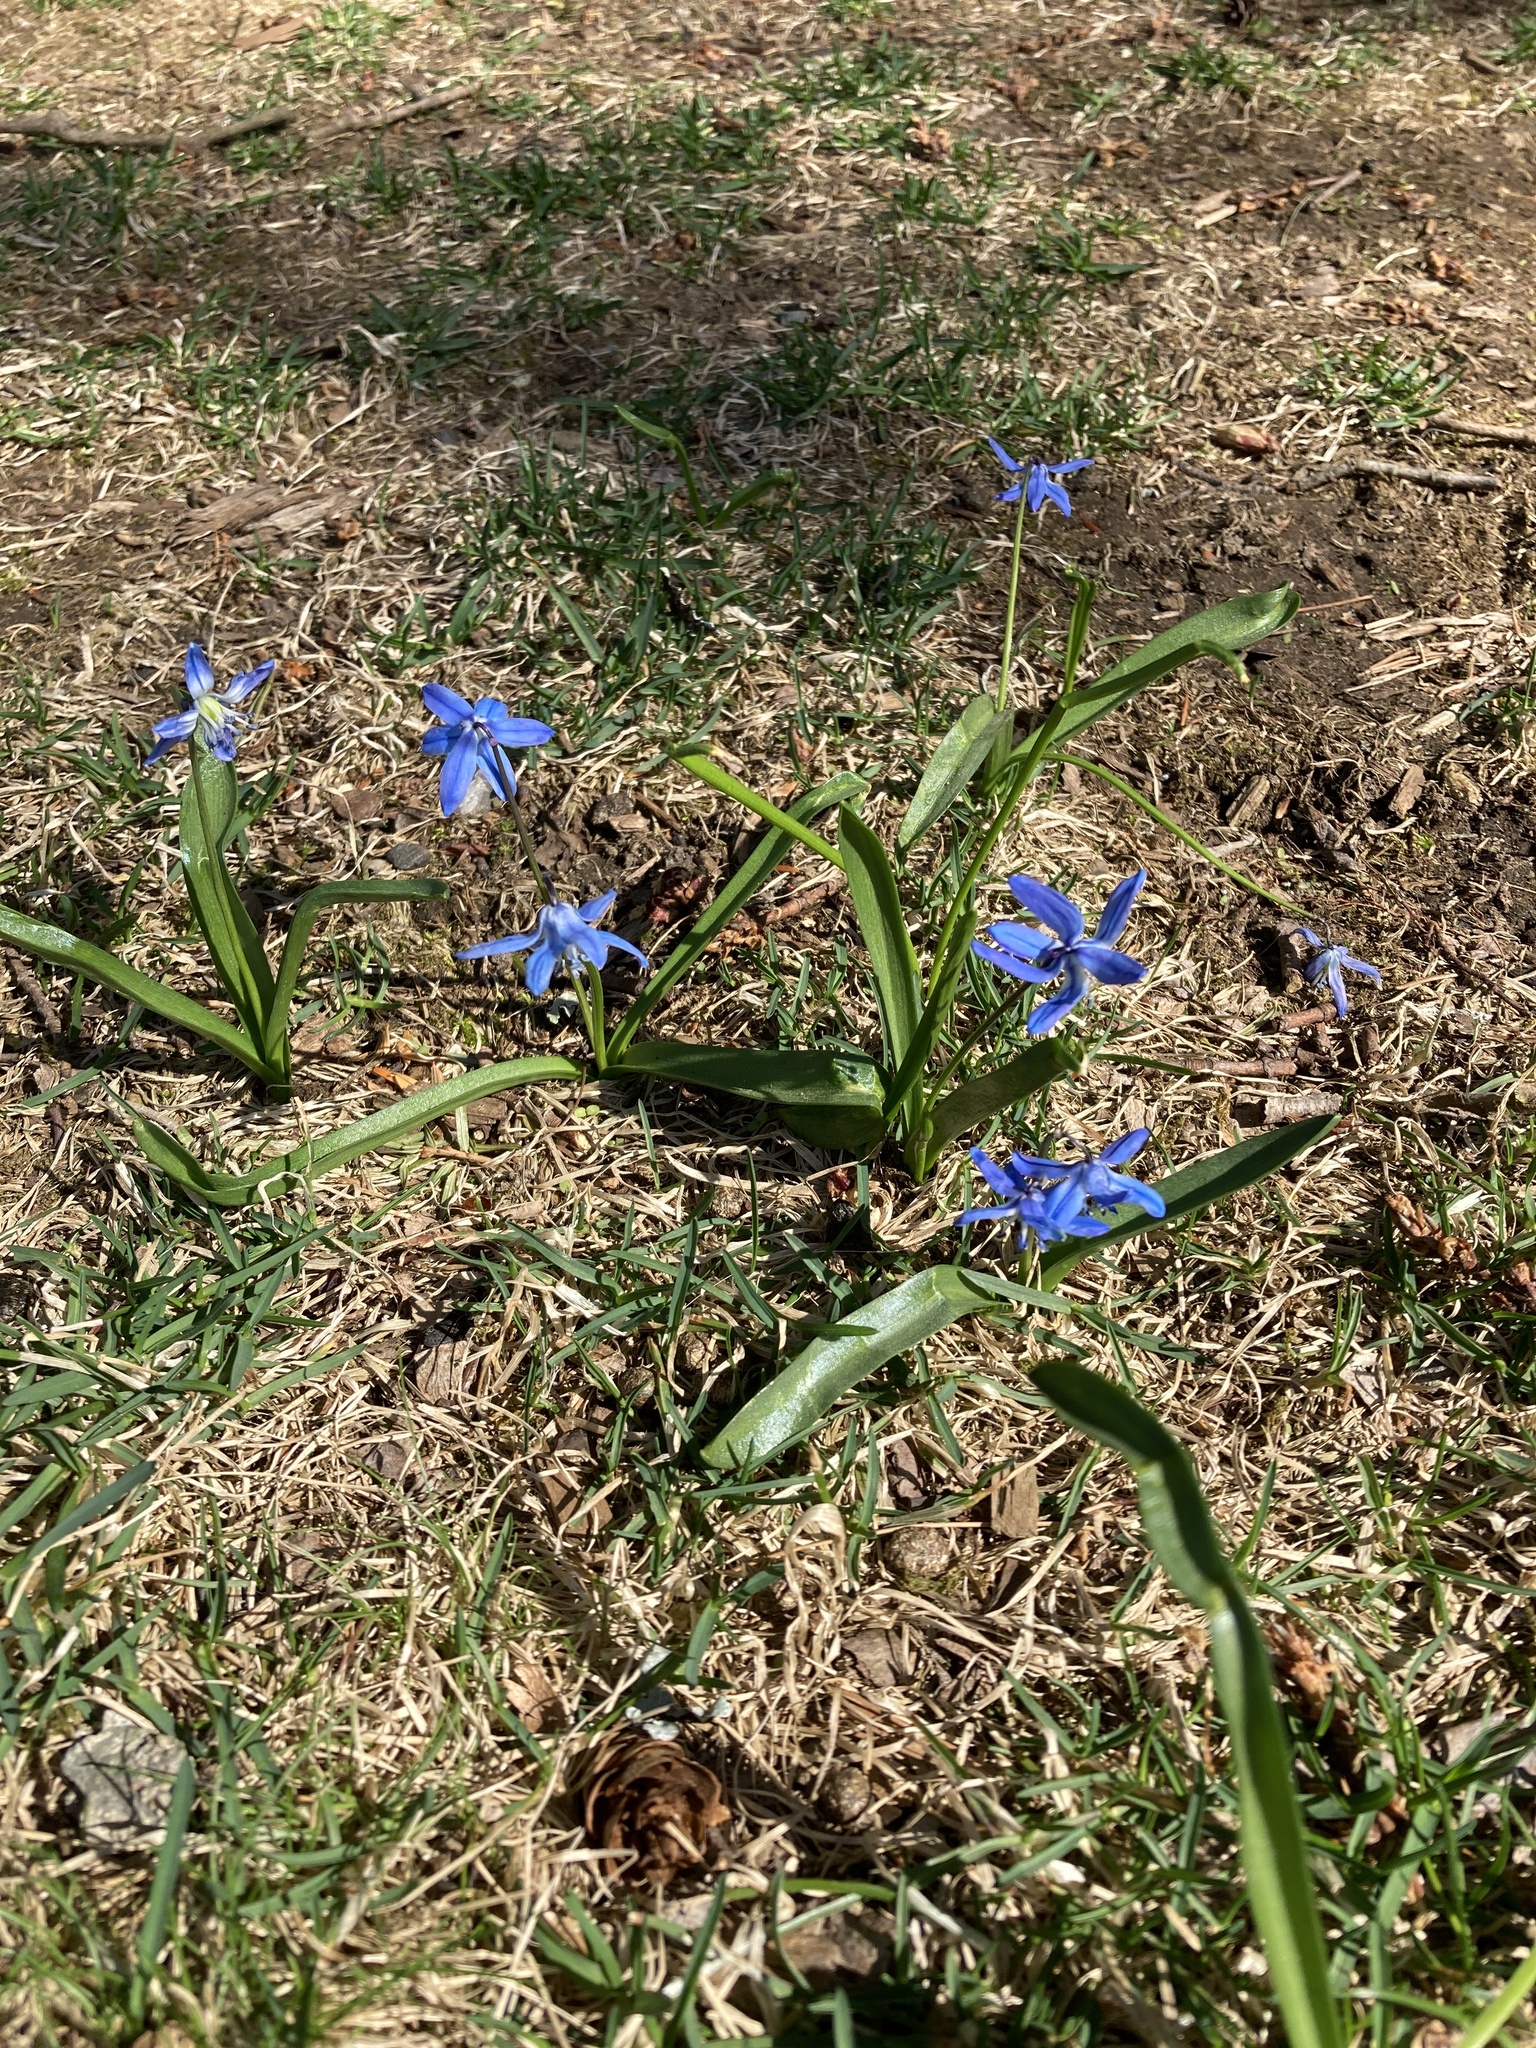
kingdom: Plantae
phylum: Tracheophyta
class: Liliopsida
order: Asparagales
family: Asparagaceae
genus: Scilla
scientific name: Scilla siberica
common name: Siberian squill
